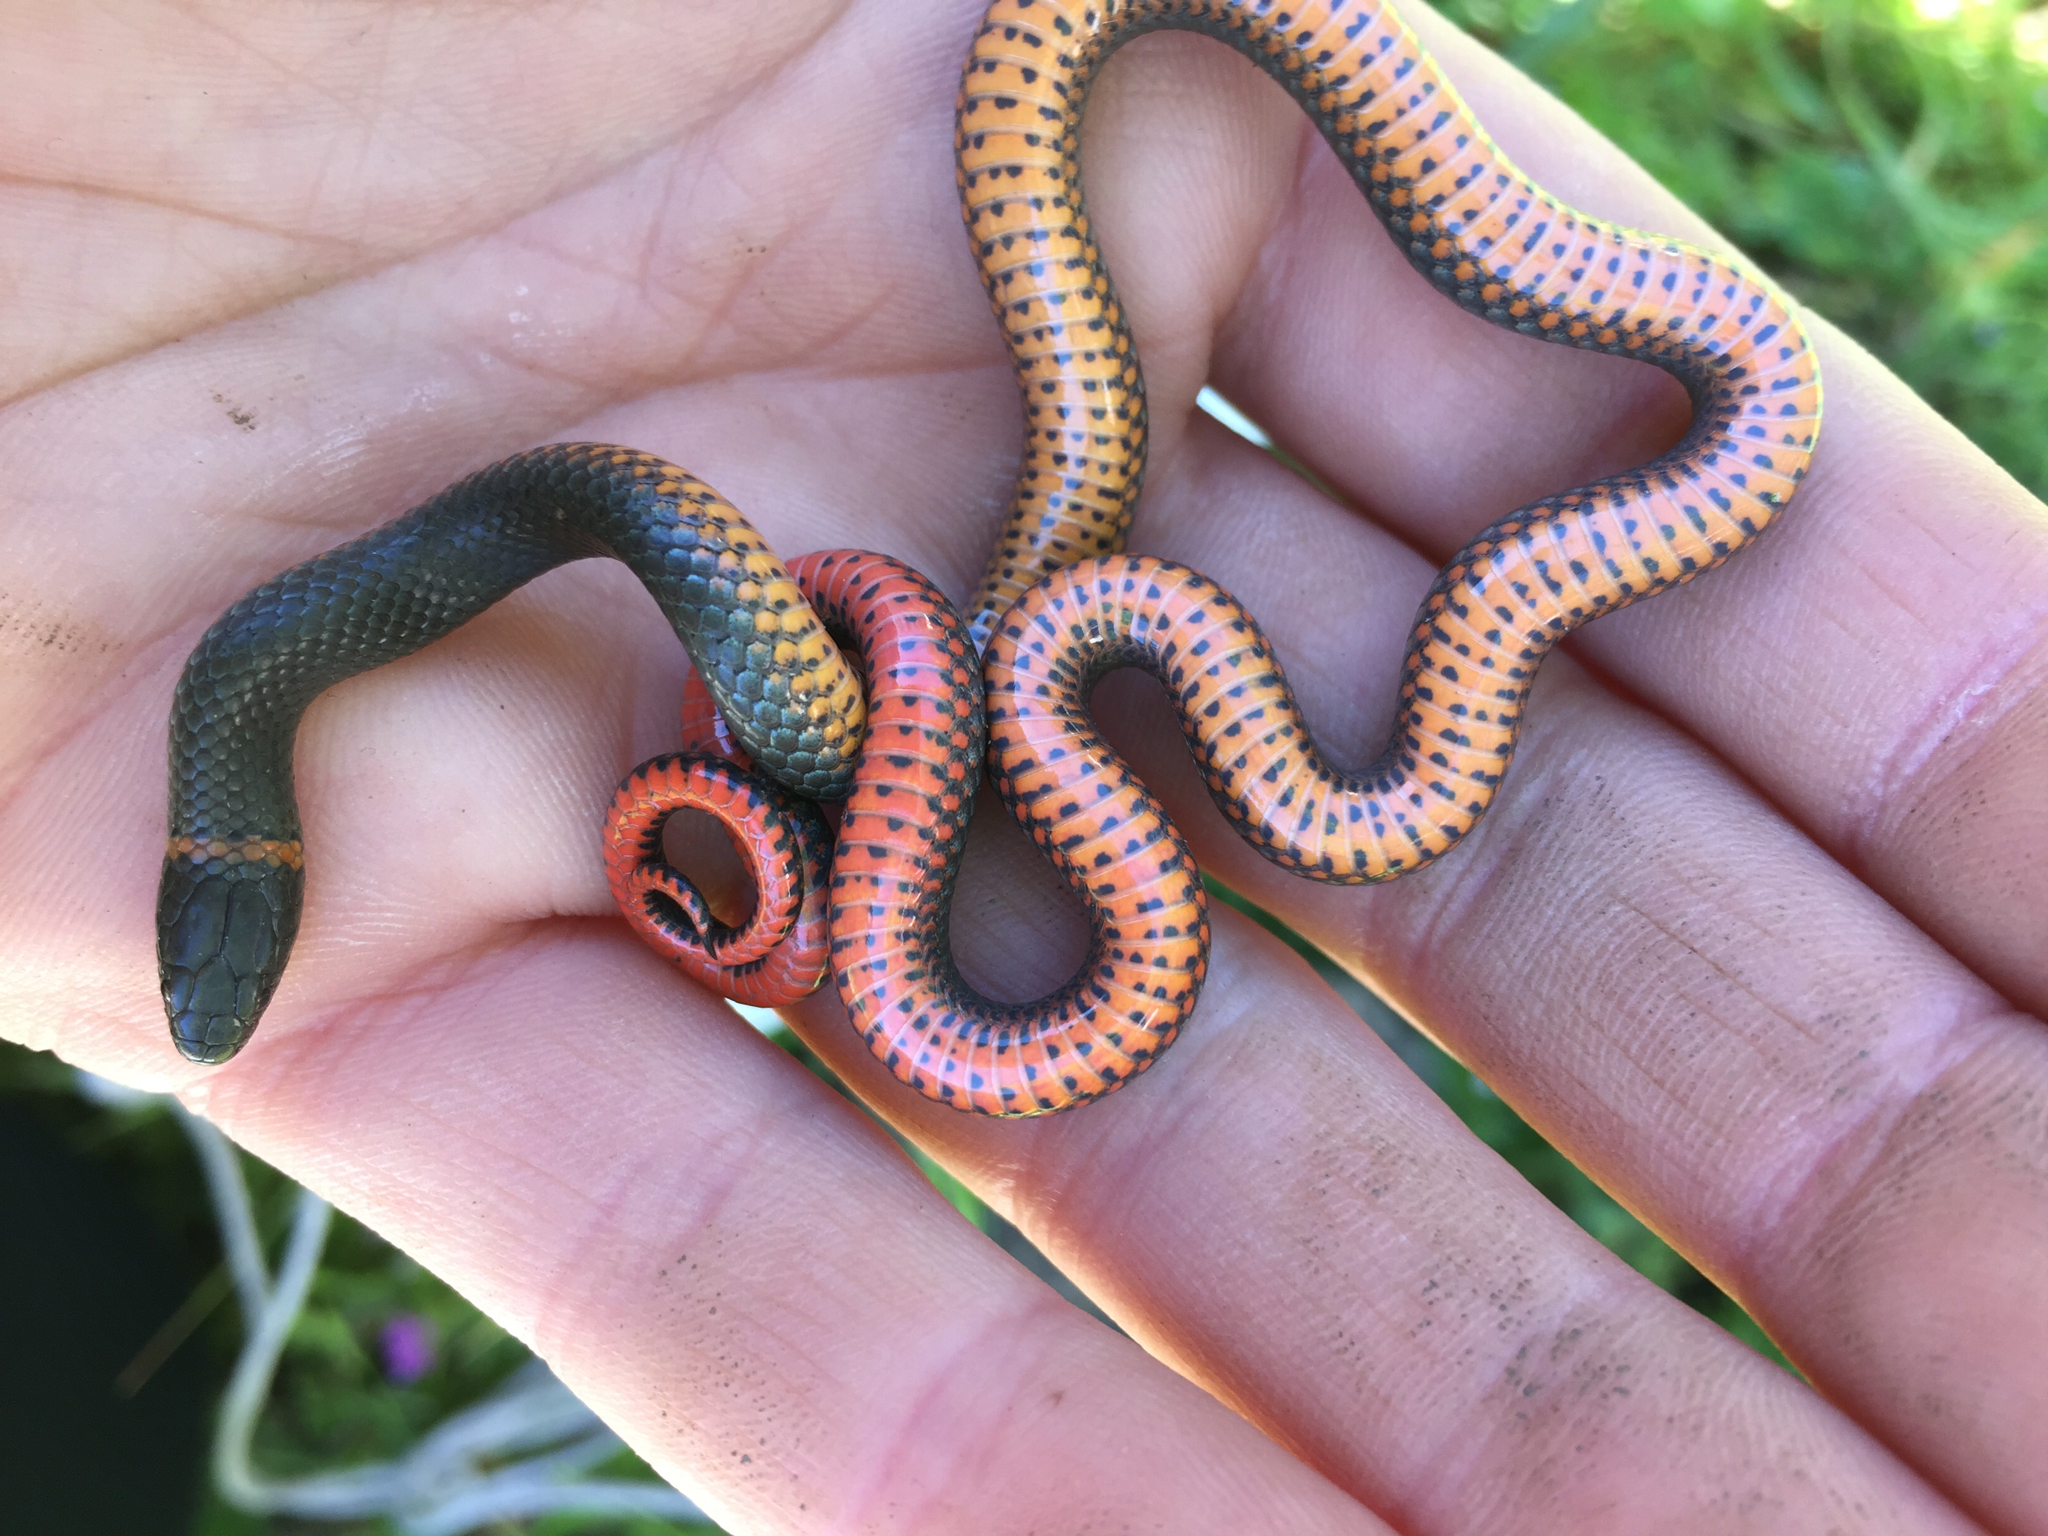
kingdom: Animalia
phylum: Chordata
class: Squamata
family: Colubridae
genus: Diadophis
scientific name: Diadophis punctatus
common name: Ringneck snake
